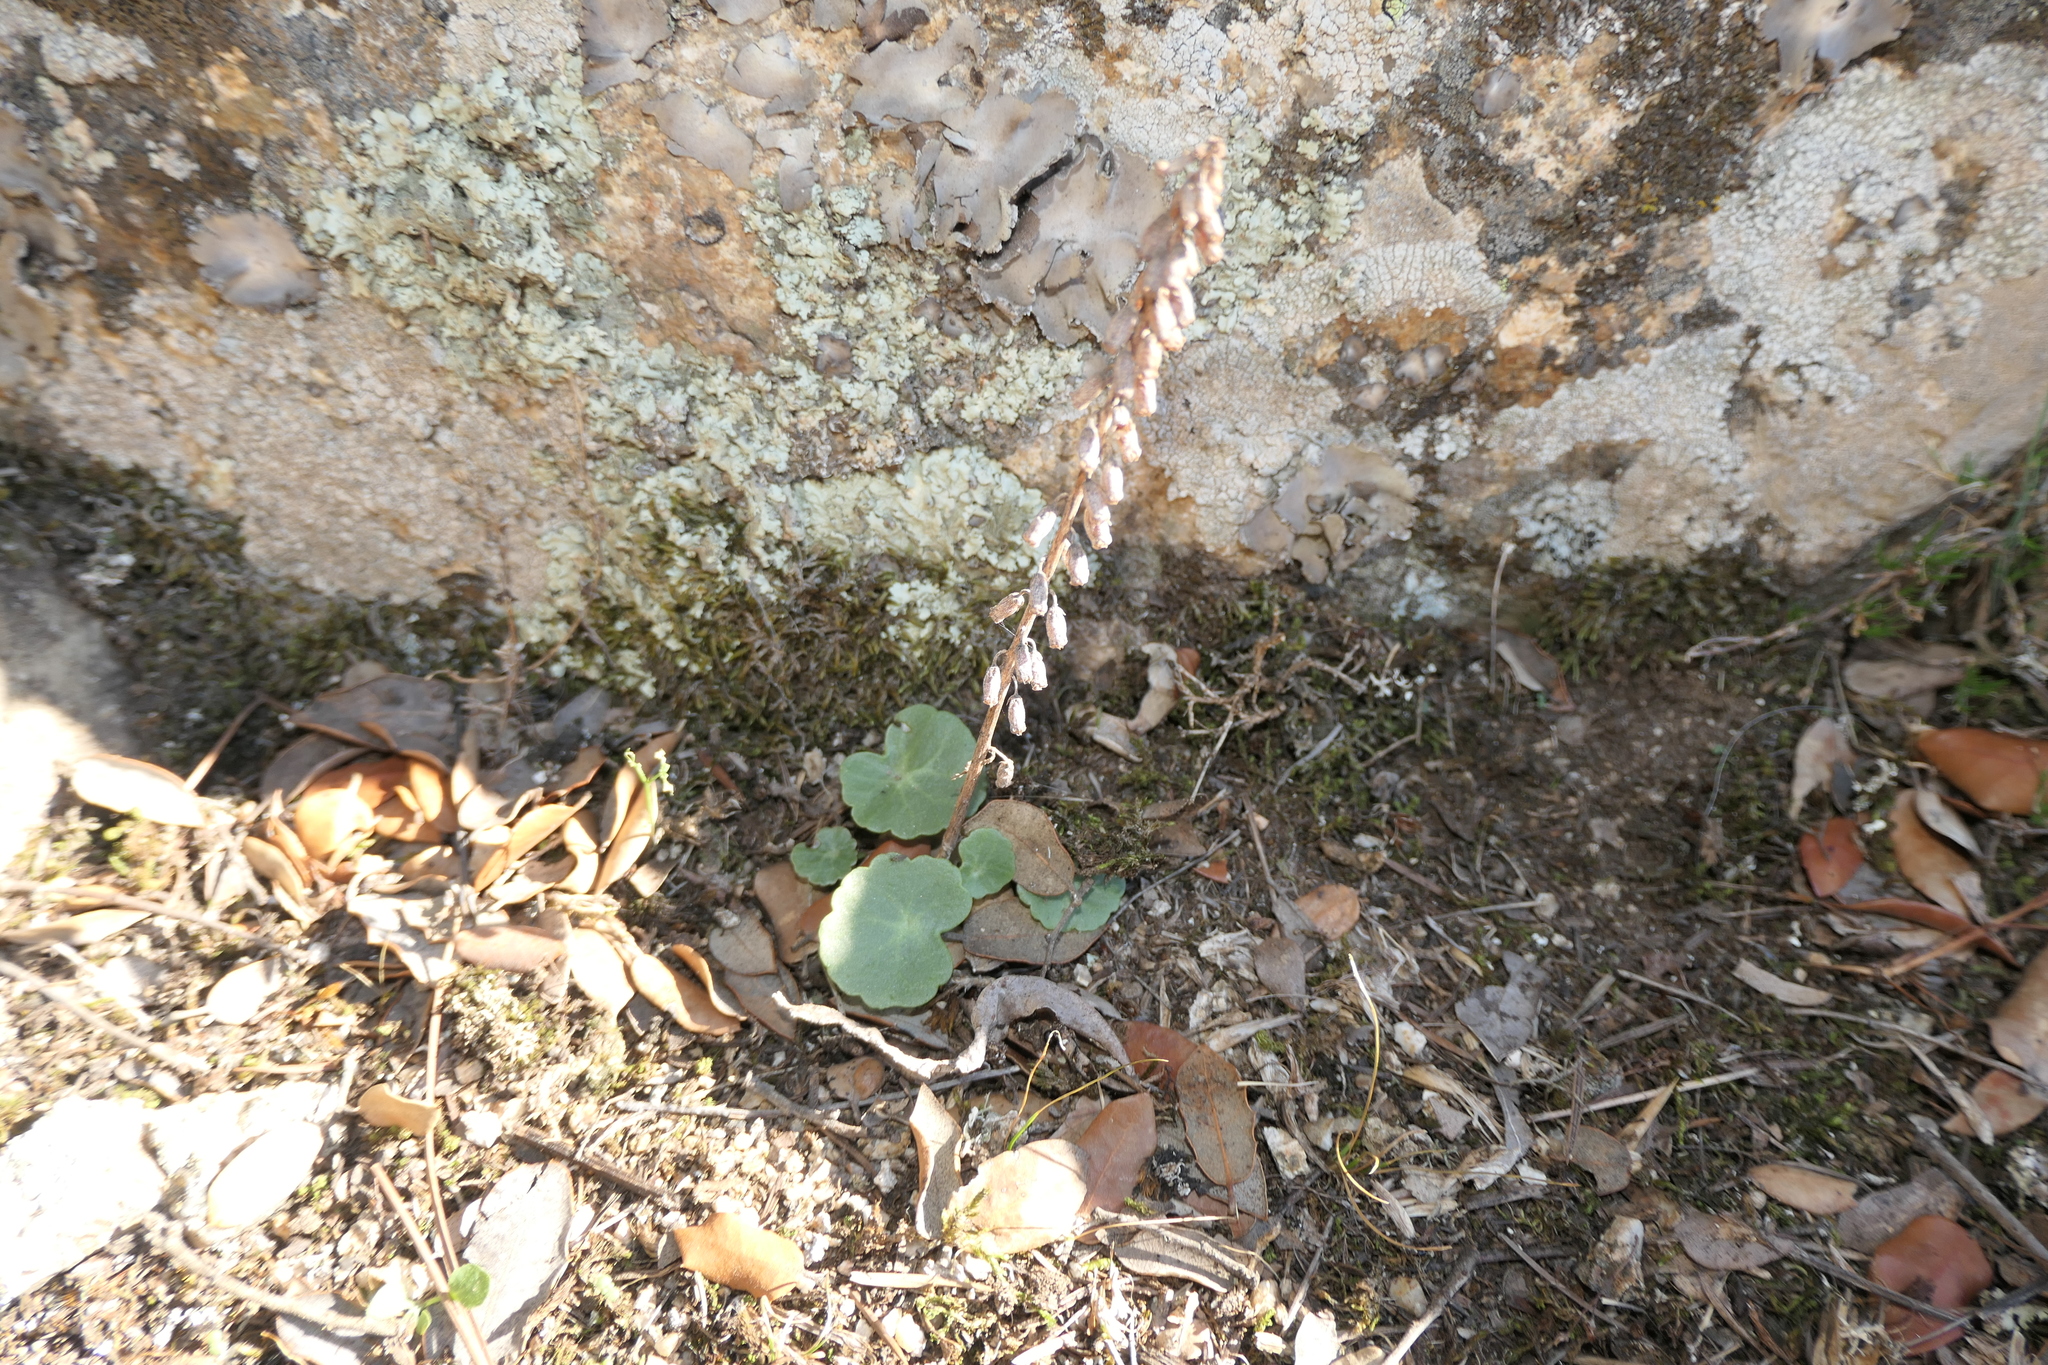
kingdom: Plantae
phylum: Tracheophyta
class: Magnoliopsida
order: Saxifragales
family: Crassulaceae
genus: Umbilicus
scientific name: Umbilicus rupestris
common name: Navelwort
